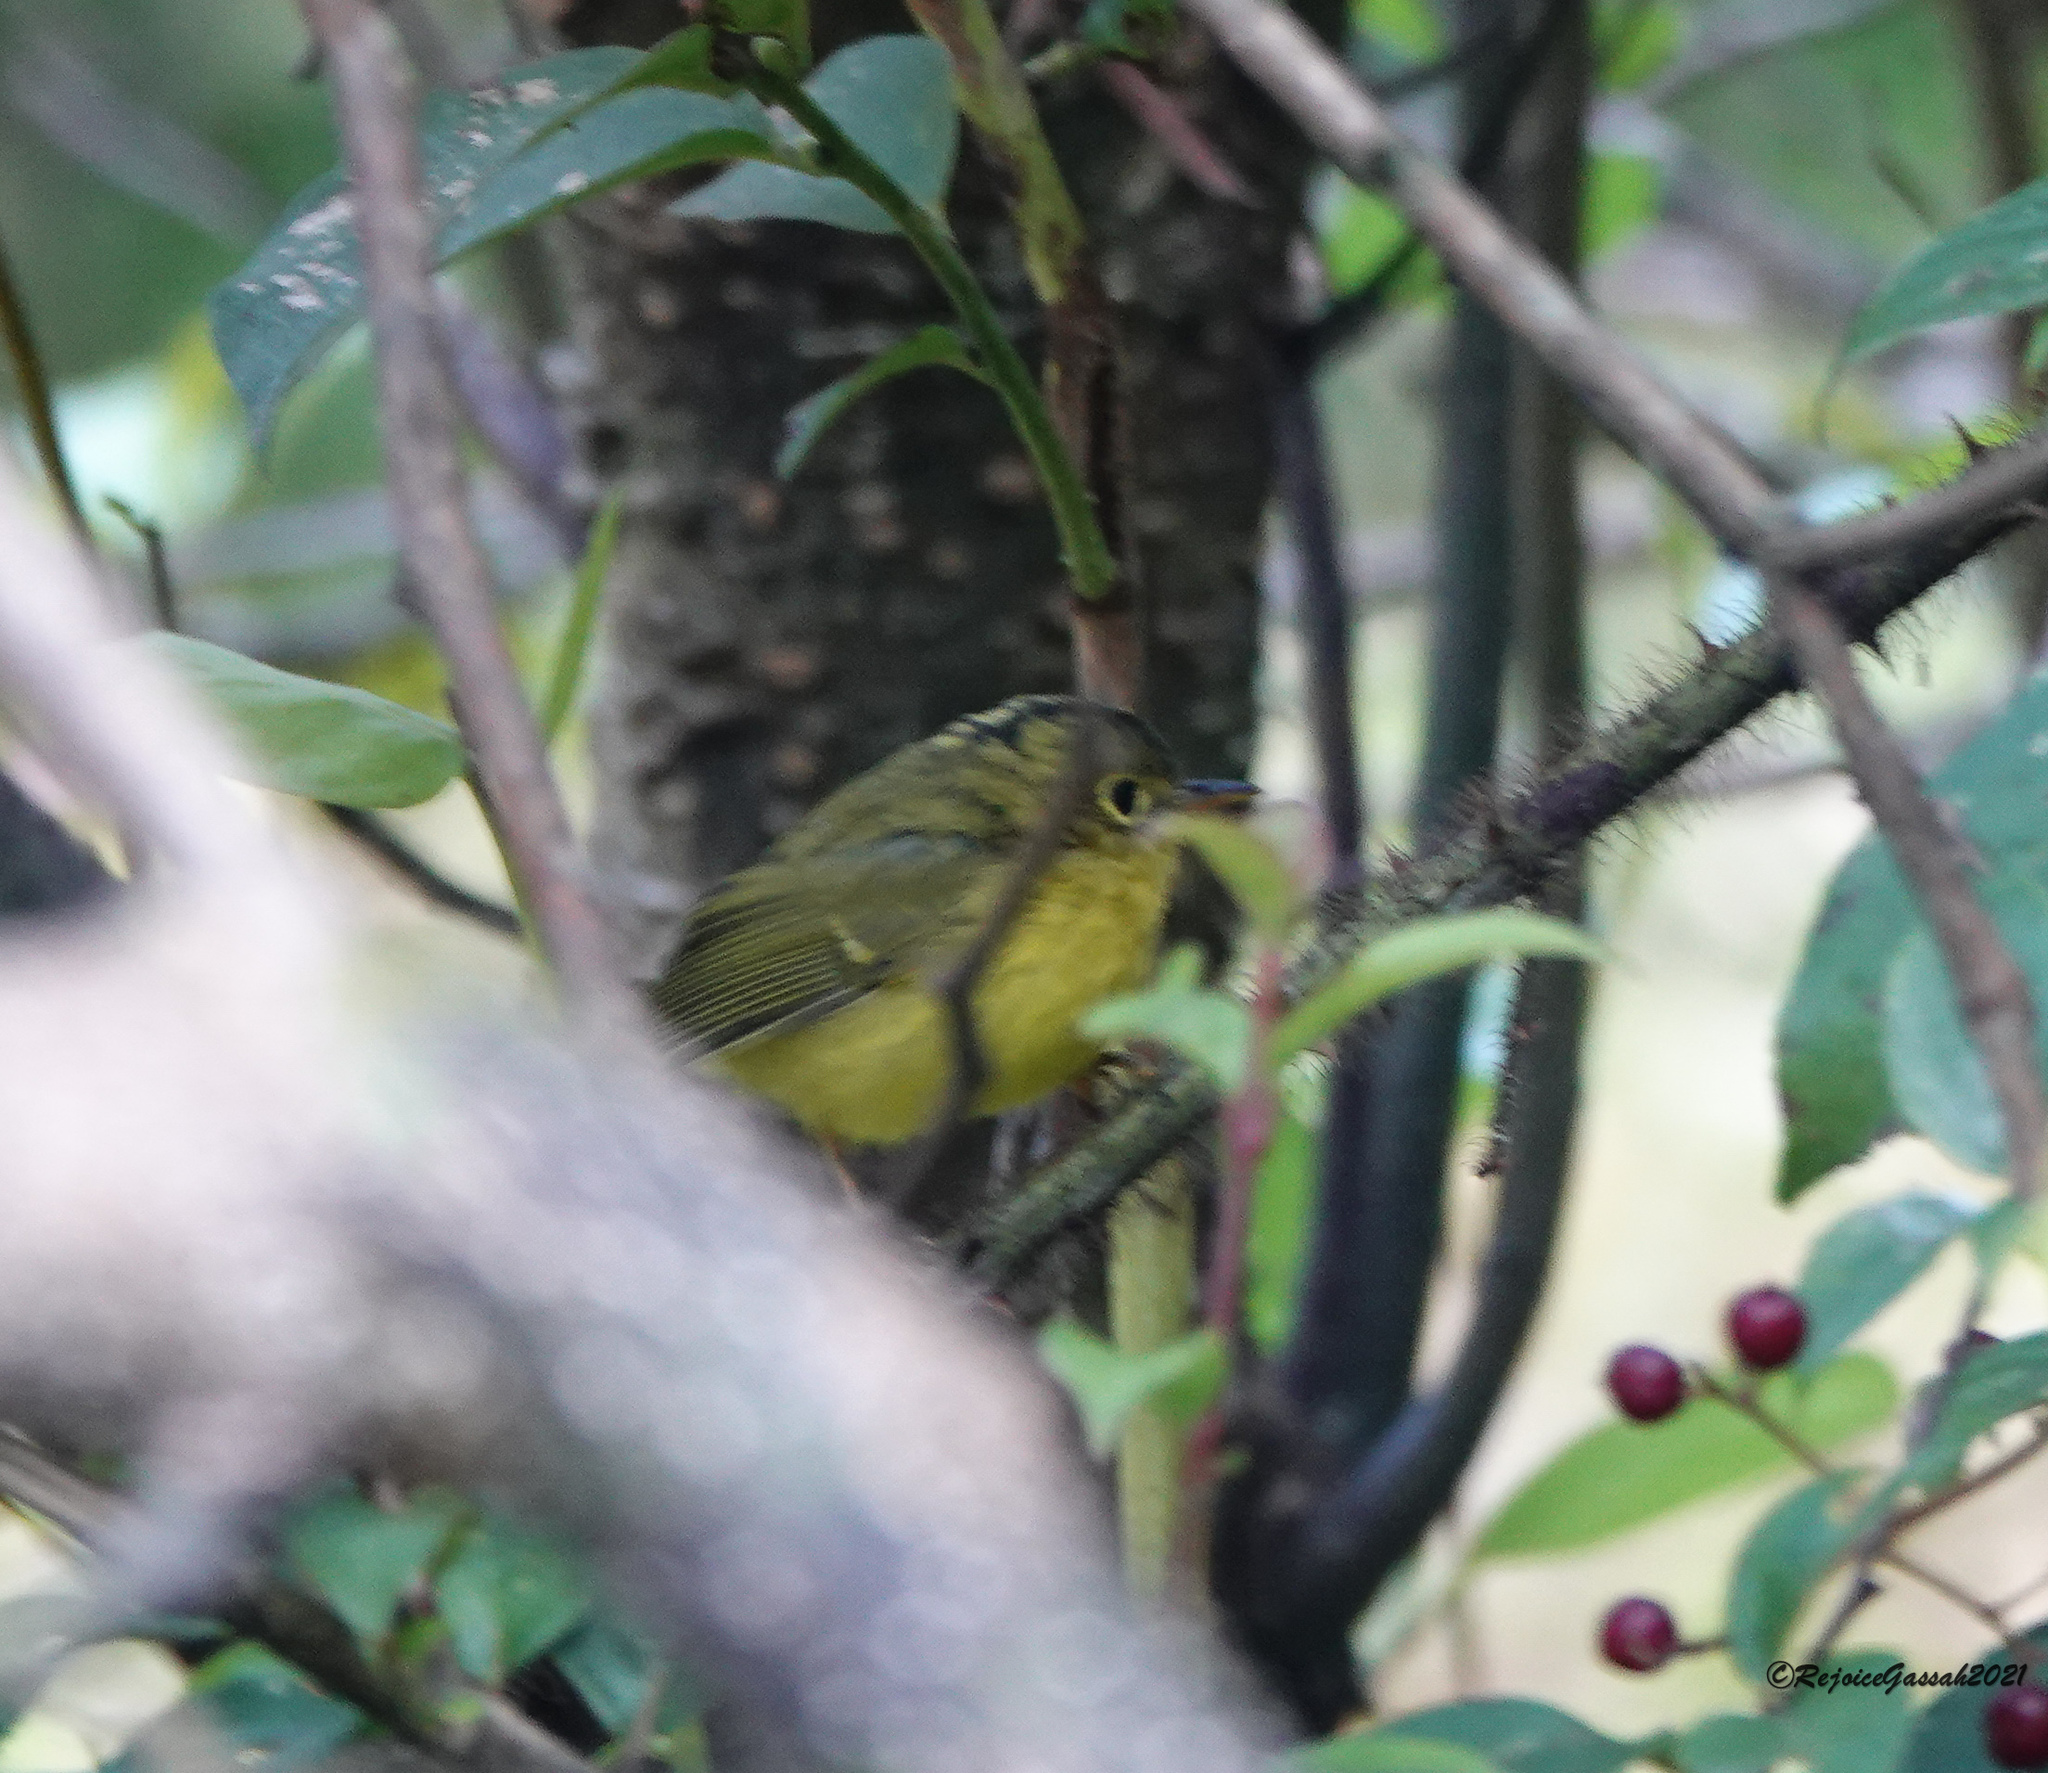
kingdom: Animalia
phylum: Chordata
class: Aves
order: Passeriformes
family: Phylloscopidae
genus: Seicercus
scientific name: Seicercus whistleri
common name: Whistler's warbler
